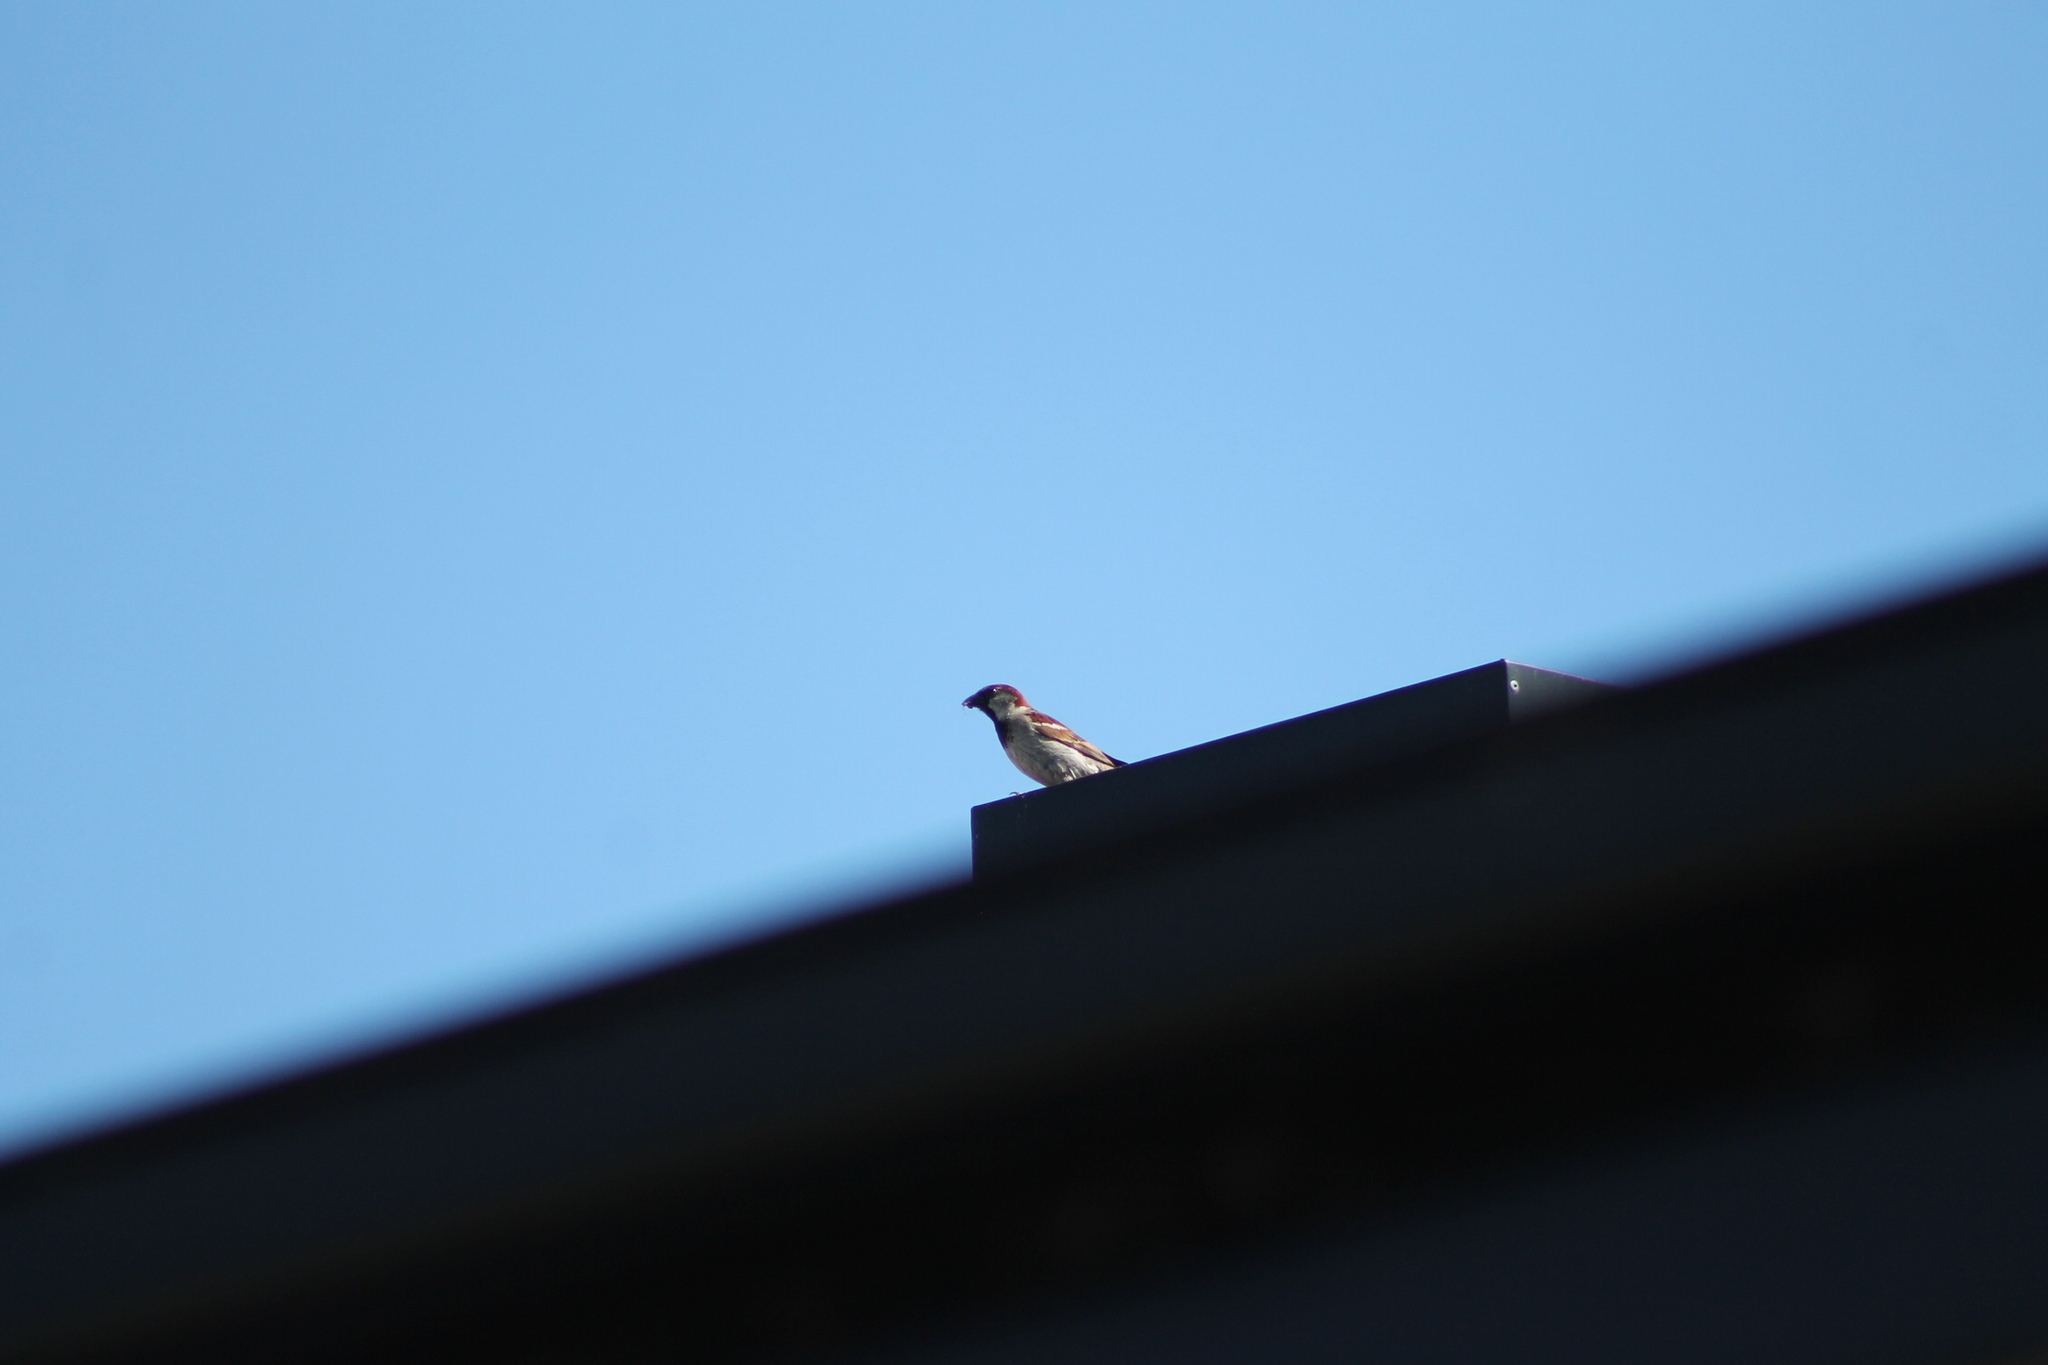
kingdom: Animalia
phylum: Chordata
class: Aves
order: Passeriformes
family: Passeridae
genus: Passer
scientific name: Passer domesticus
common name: House sparrow
